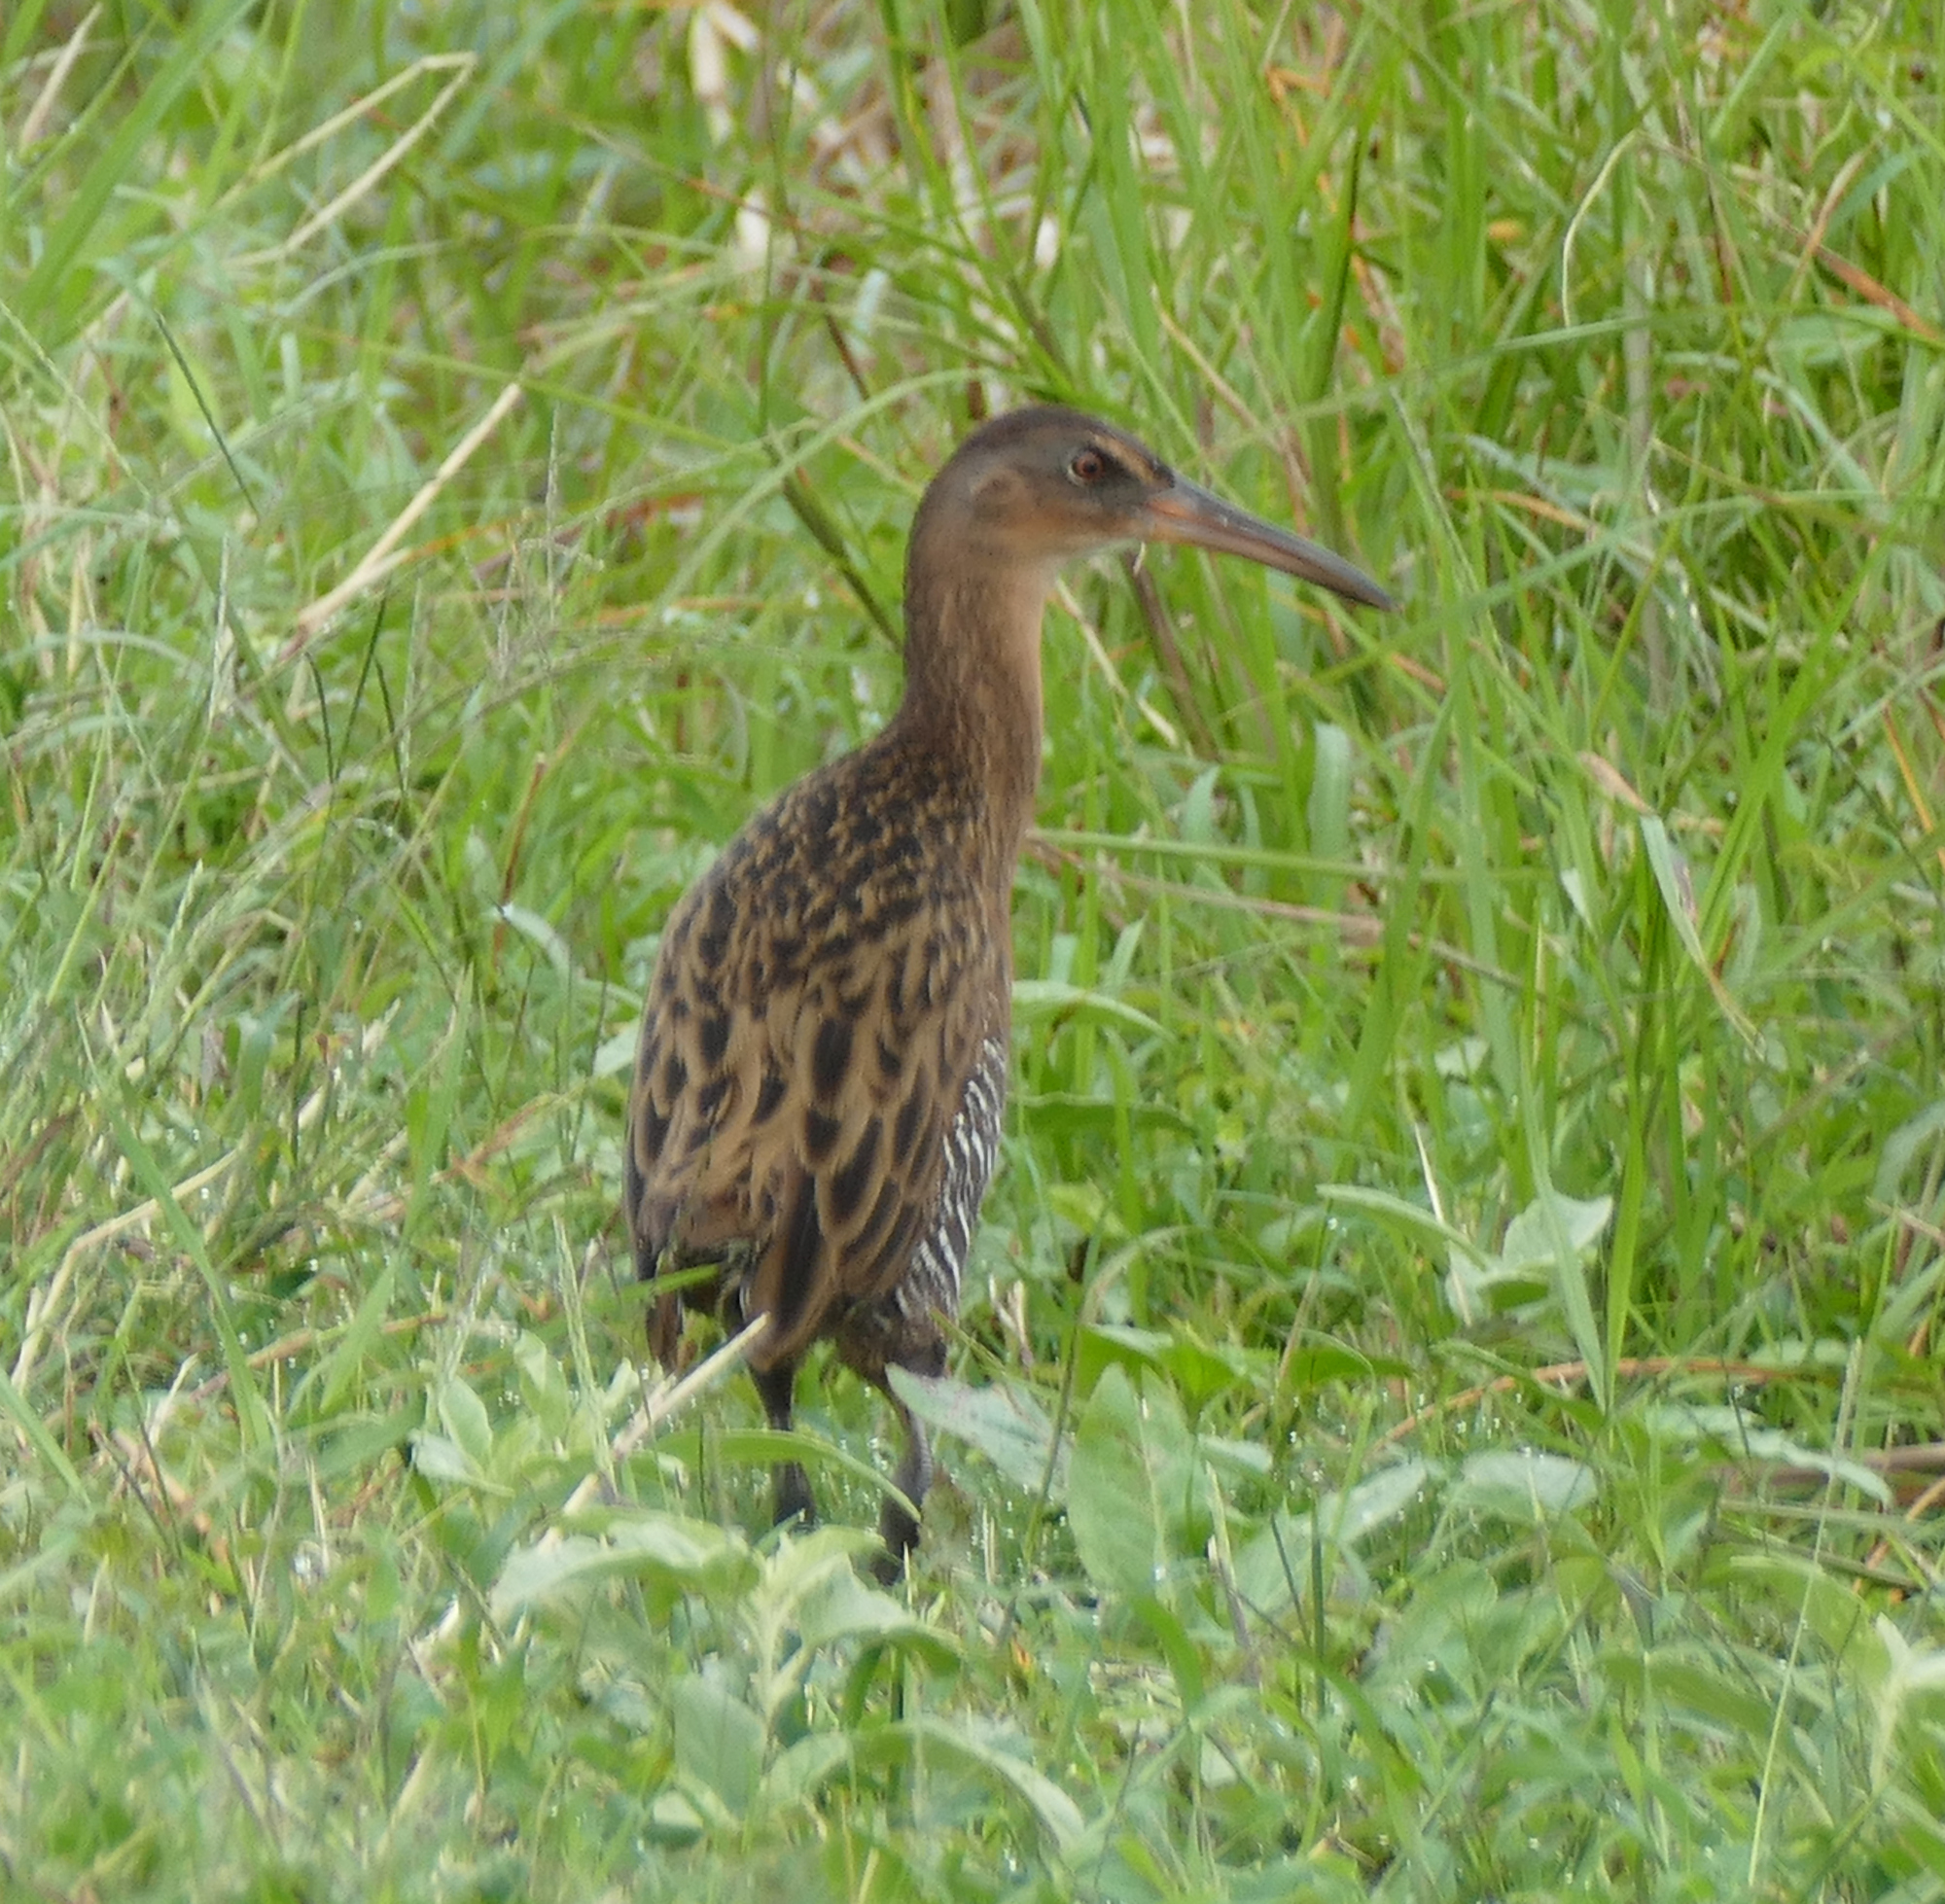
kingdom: Animalia
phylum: Chordata
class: Aves
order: Gruiformes
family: Rallidae
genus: Rallus
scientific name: Rallus elegans
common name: King rail
